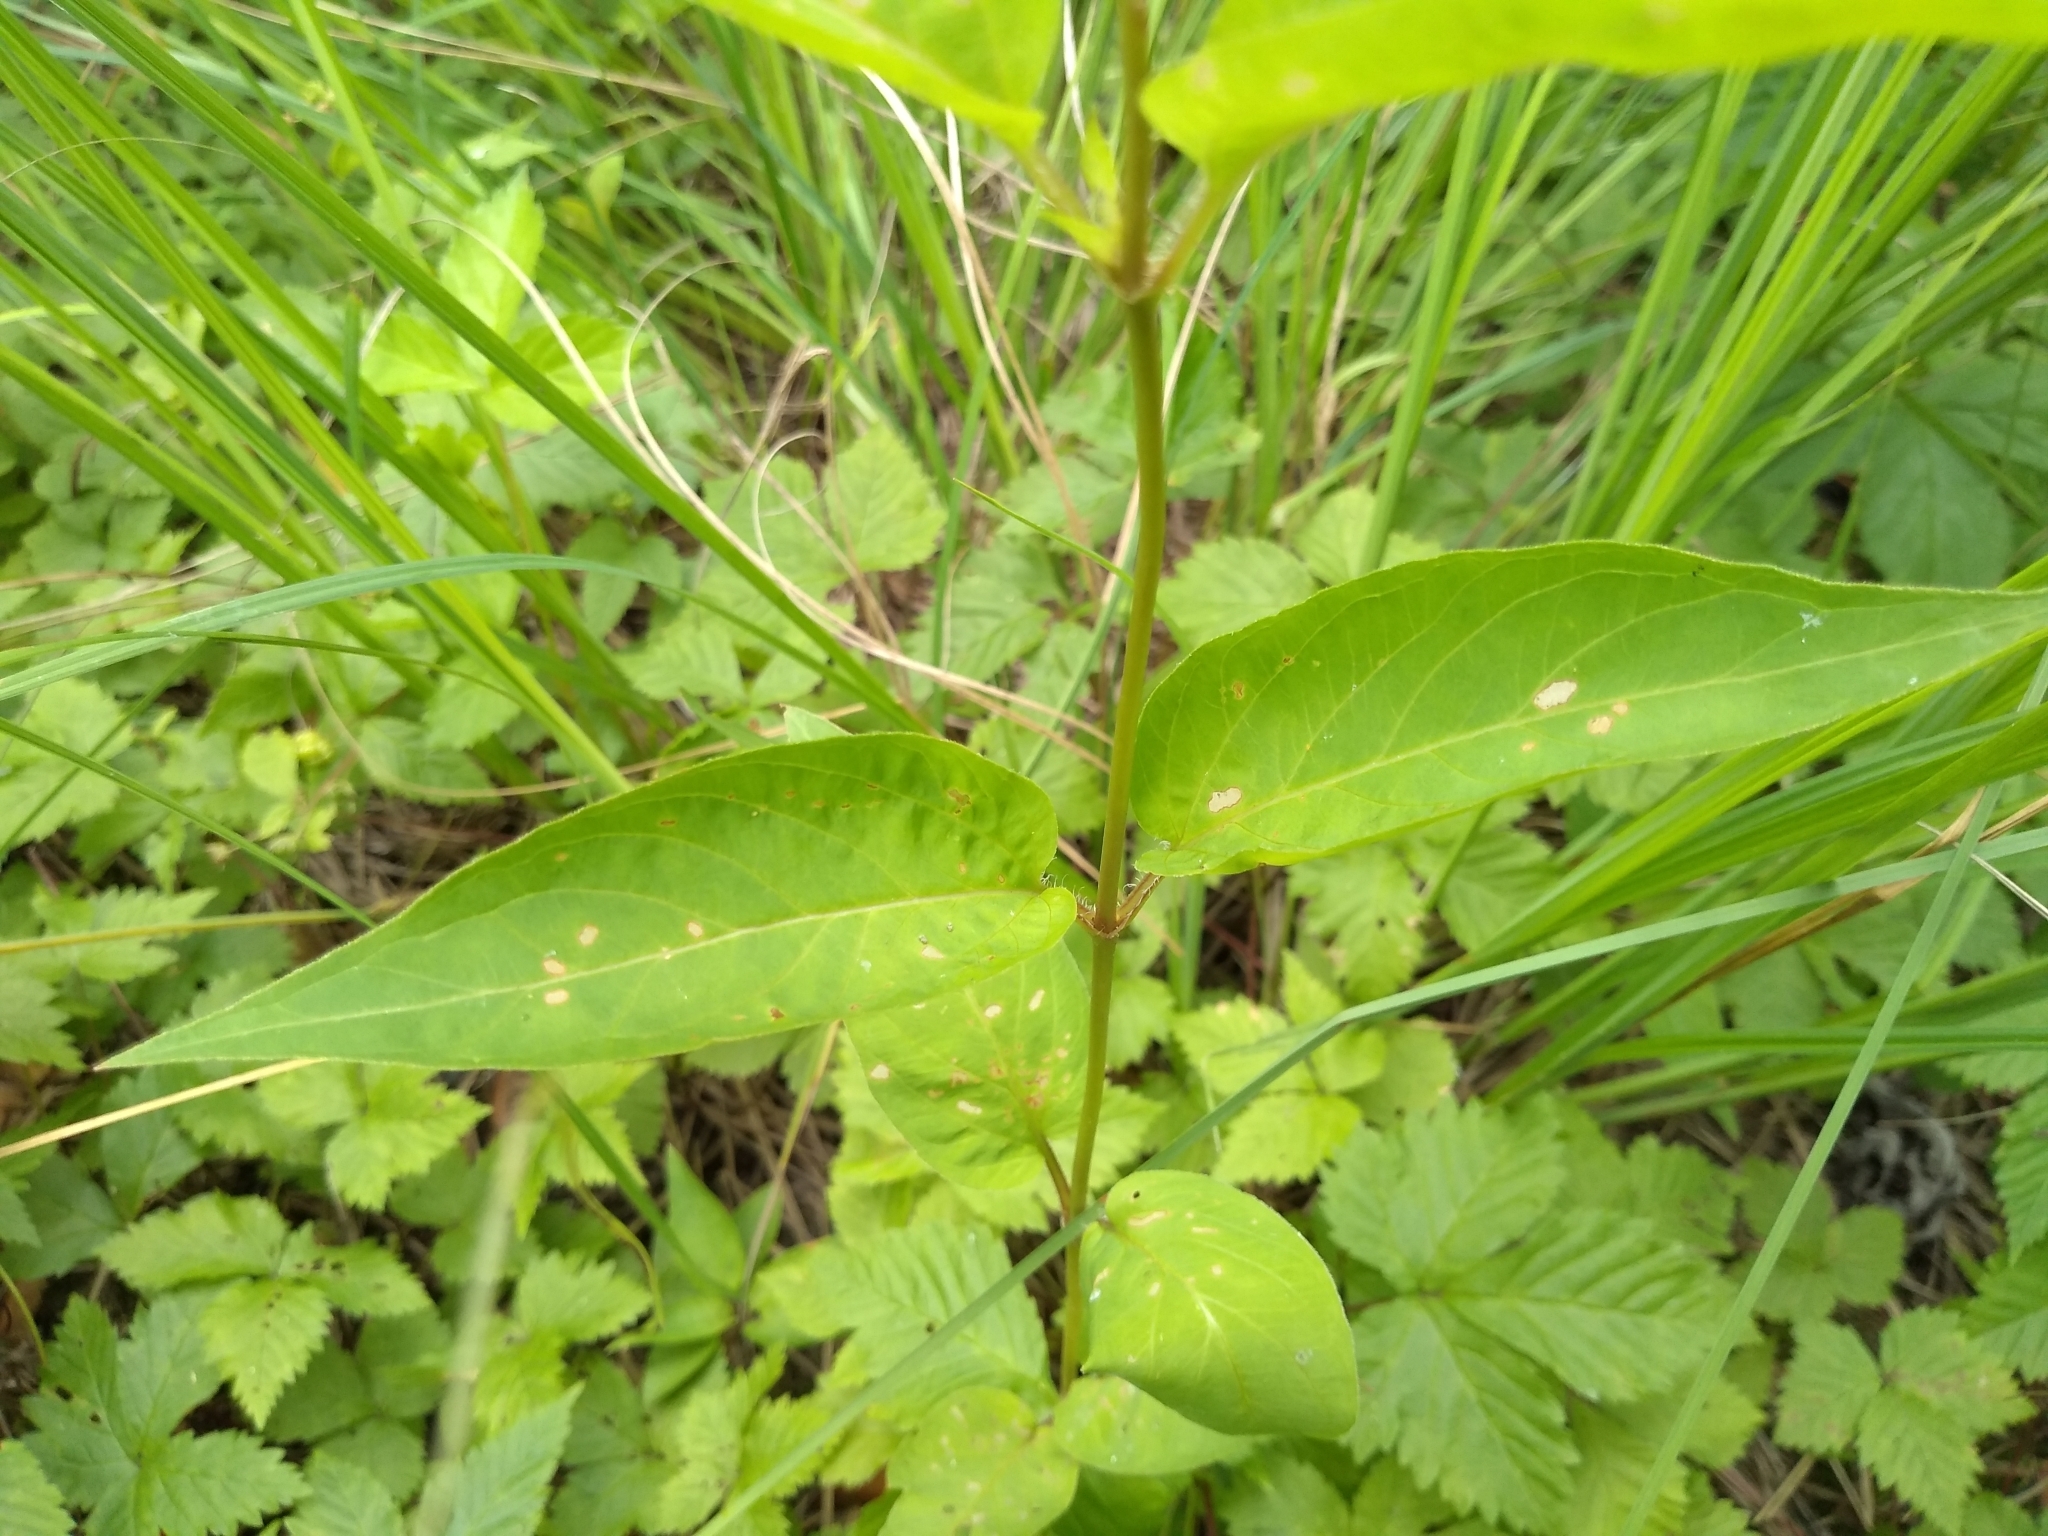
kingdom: Plantae
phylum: Tracheophyta
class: Magnoliopsida
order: Ericales
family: Primulaceae
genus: Lysimachia
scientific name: Lysimachia ciliata
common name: Fringed loosestrife
